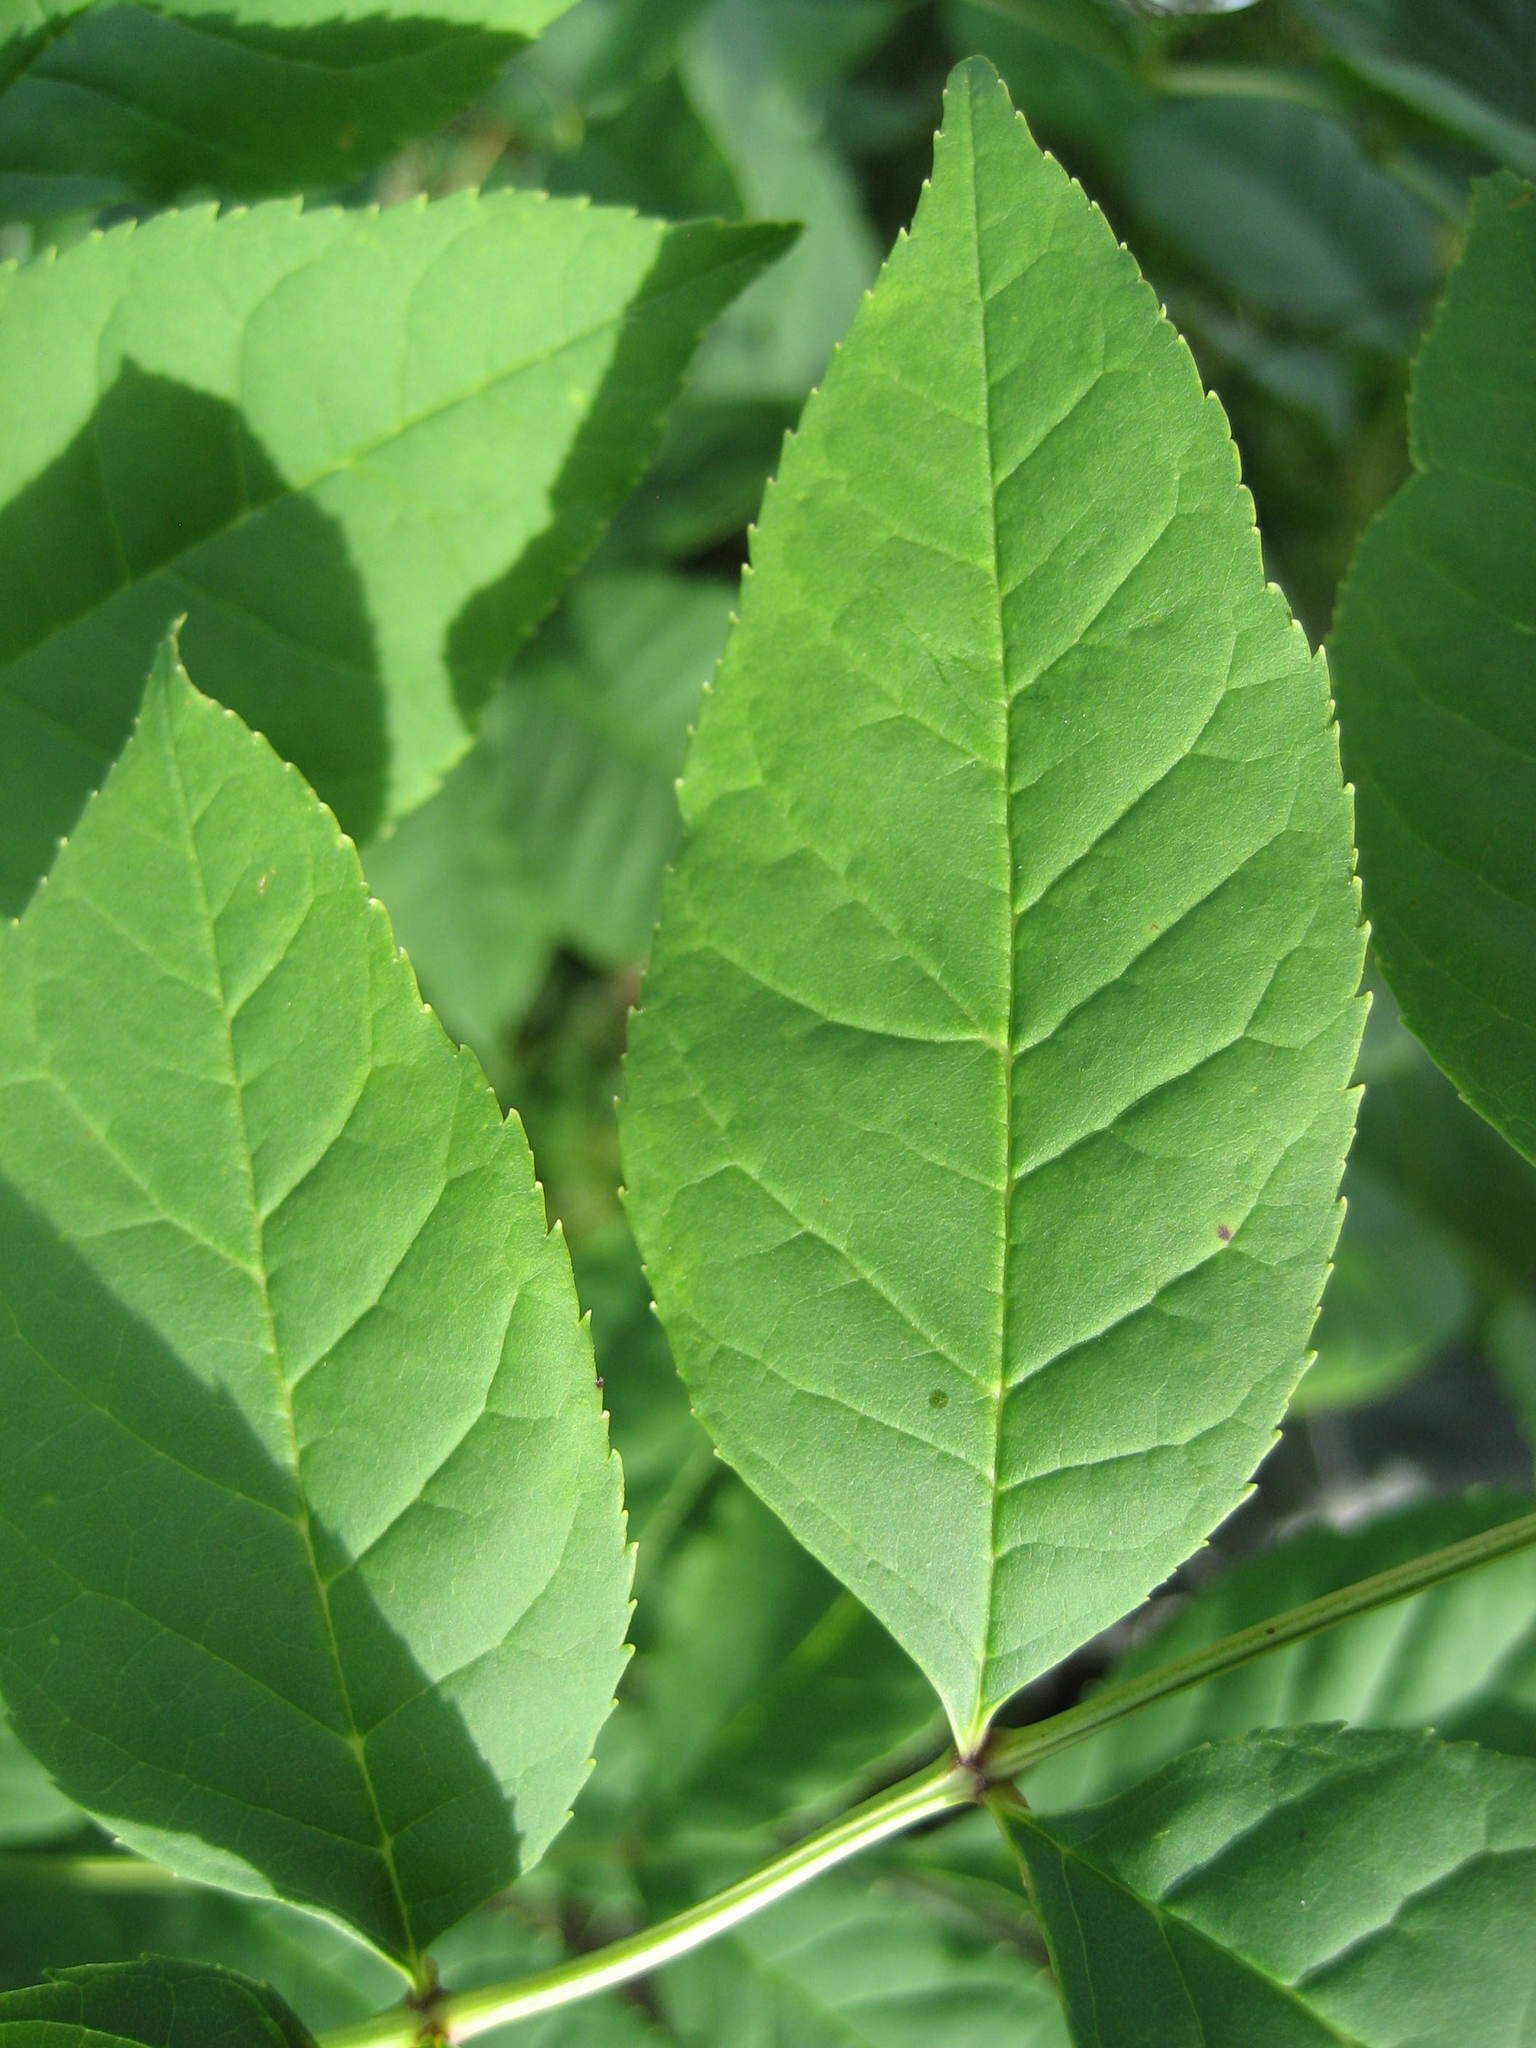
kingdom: Plantae
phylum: Tracheophyta
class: Magnoliopsida
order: Lamiales
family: Oleaceae
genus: Fraxinus
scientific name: Fraxinus pennsylvanica
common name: Green ash
